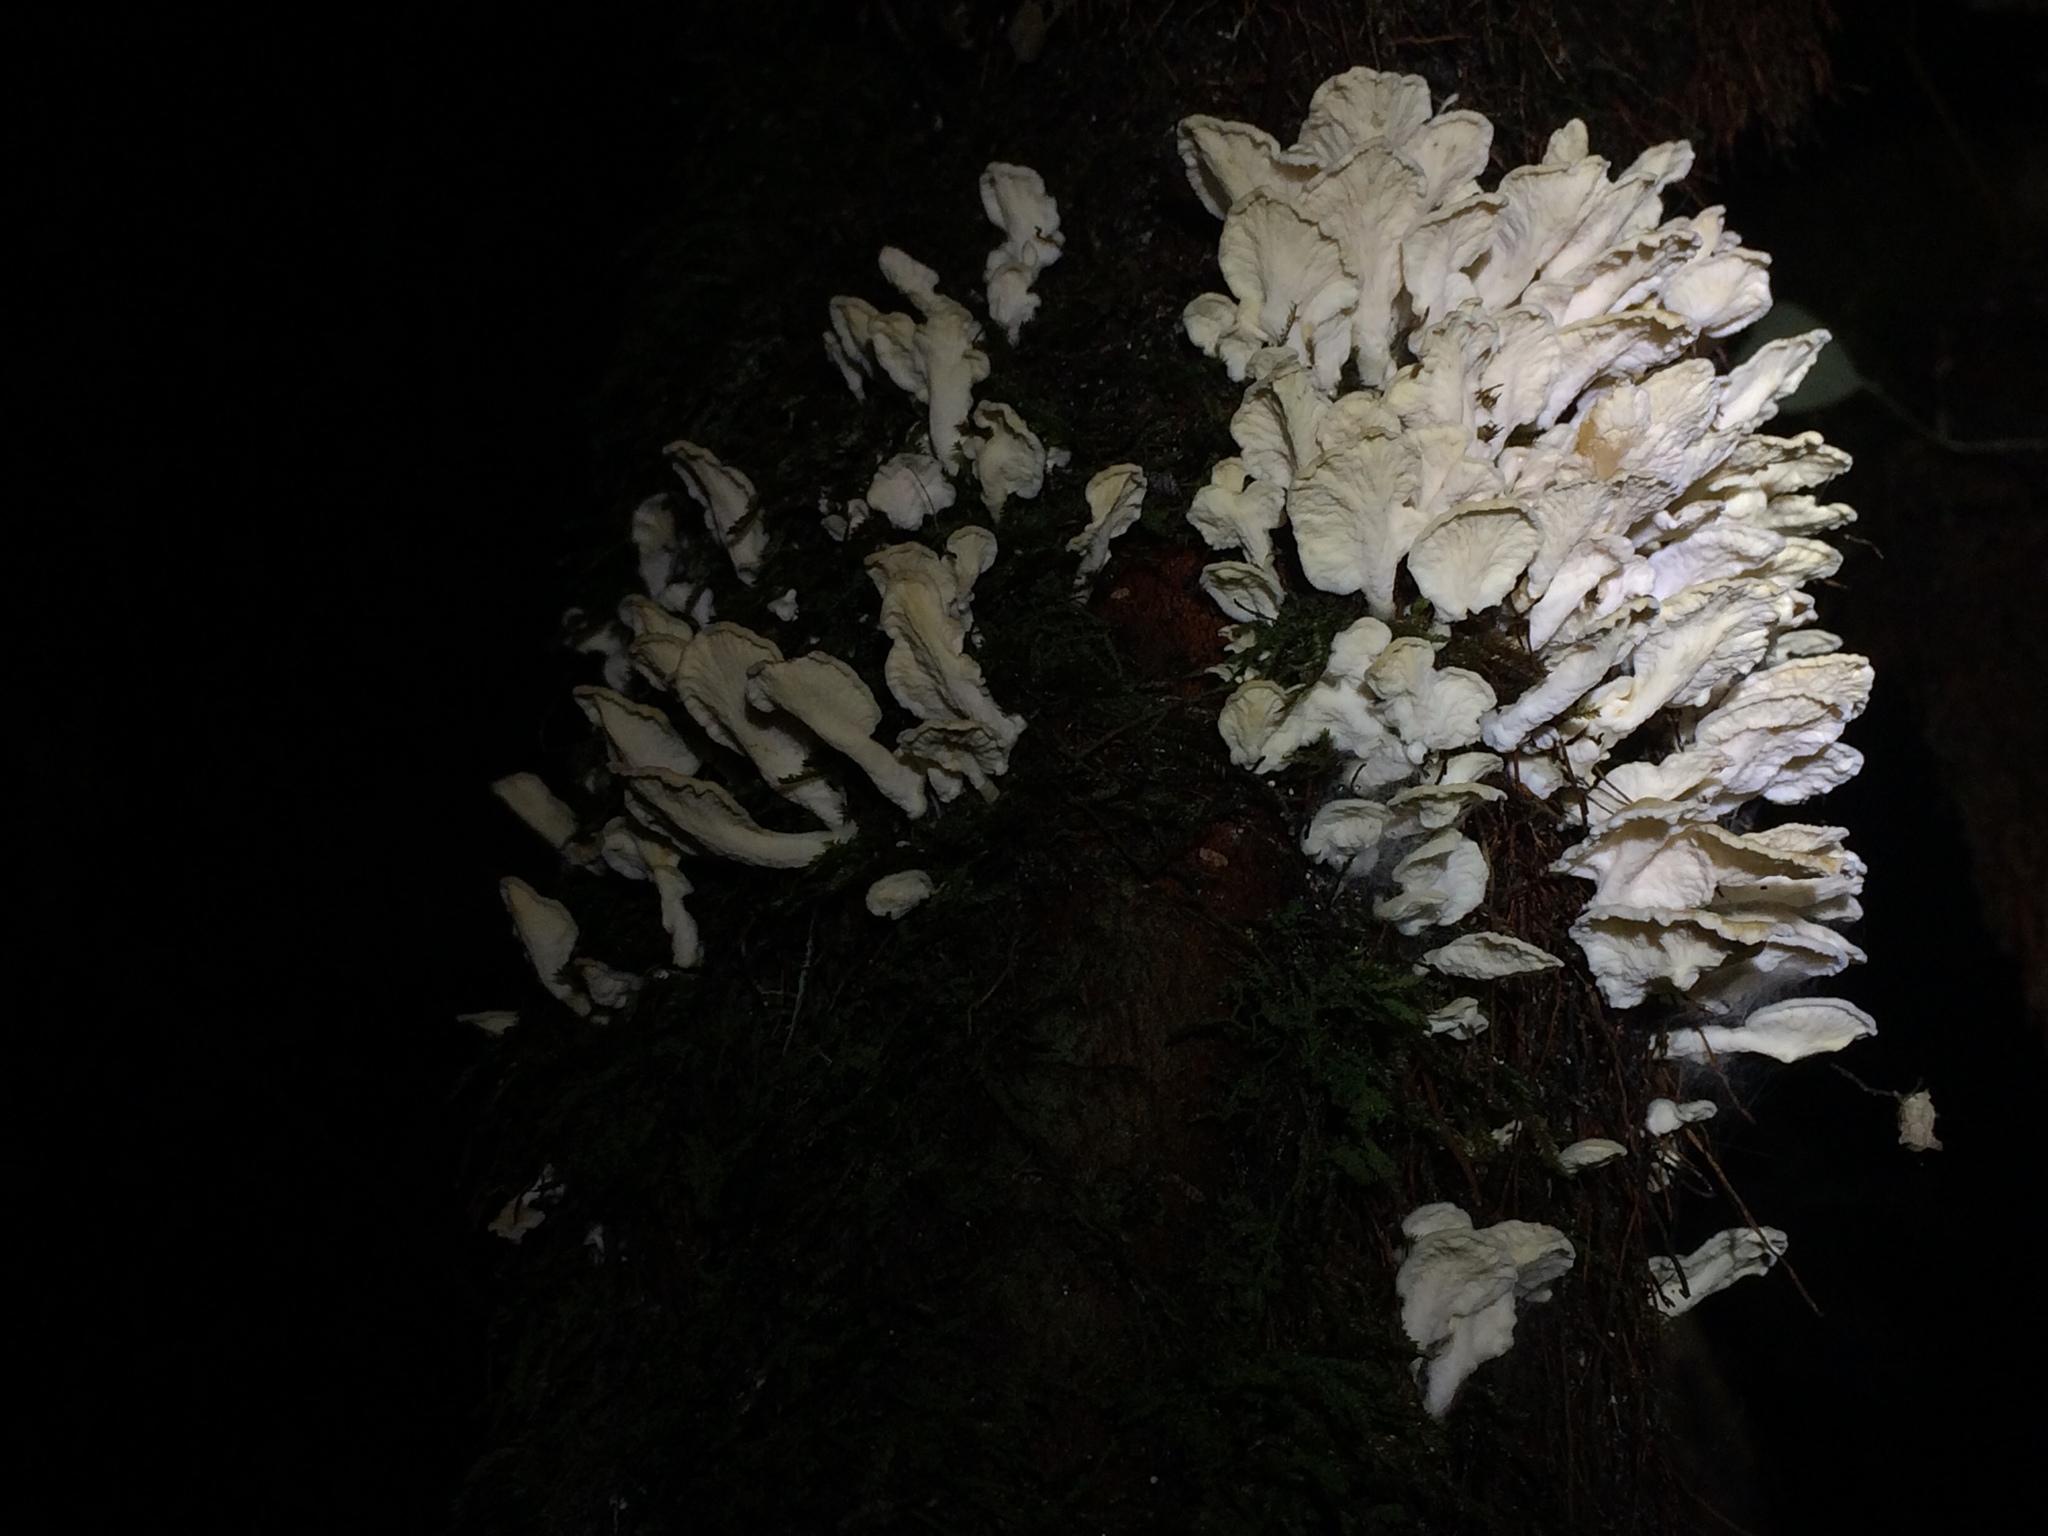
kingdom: Fungi
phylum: Basidiomycota
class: Agaricomycetes
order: Amylocorticiales
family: Amylocorticiaceae
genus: Podoserpula
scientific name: Podoserpula
